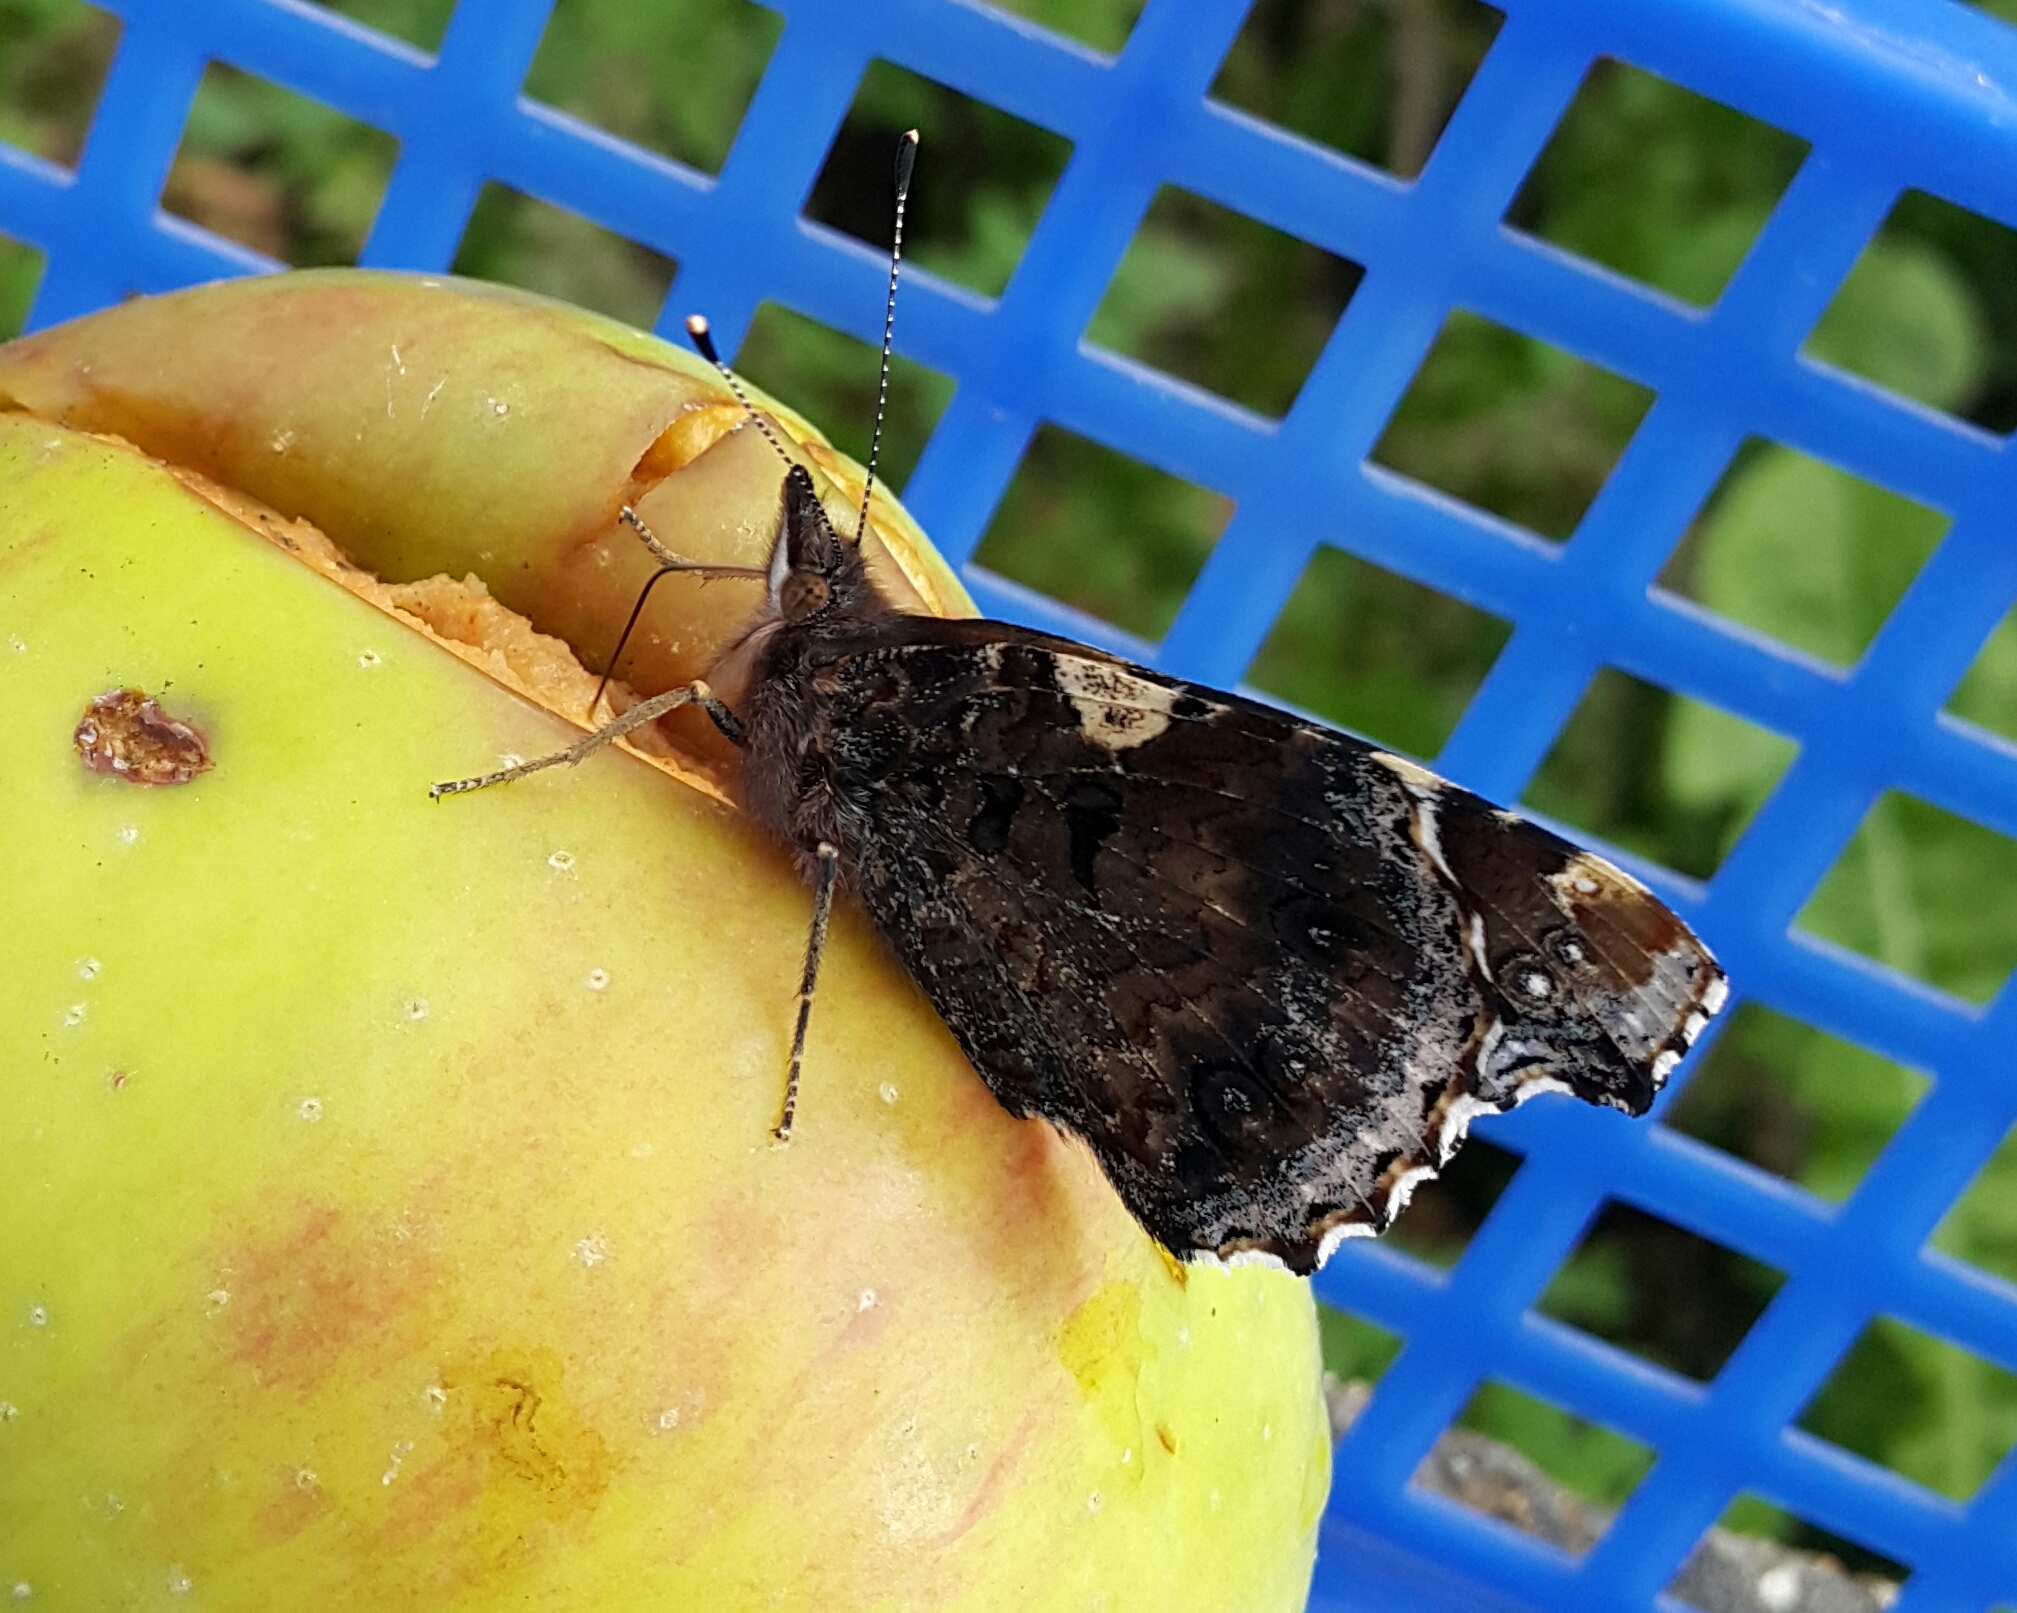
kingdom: Animalia
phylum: Arthropoda
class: Insecta
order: Lepidoptera
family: Nymphalidae
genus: Vanessa
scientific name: Vanessa atalanta
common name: Red admiral
